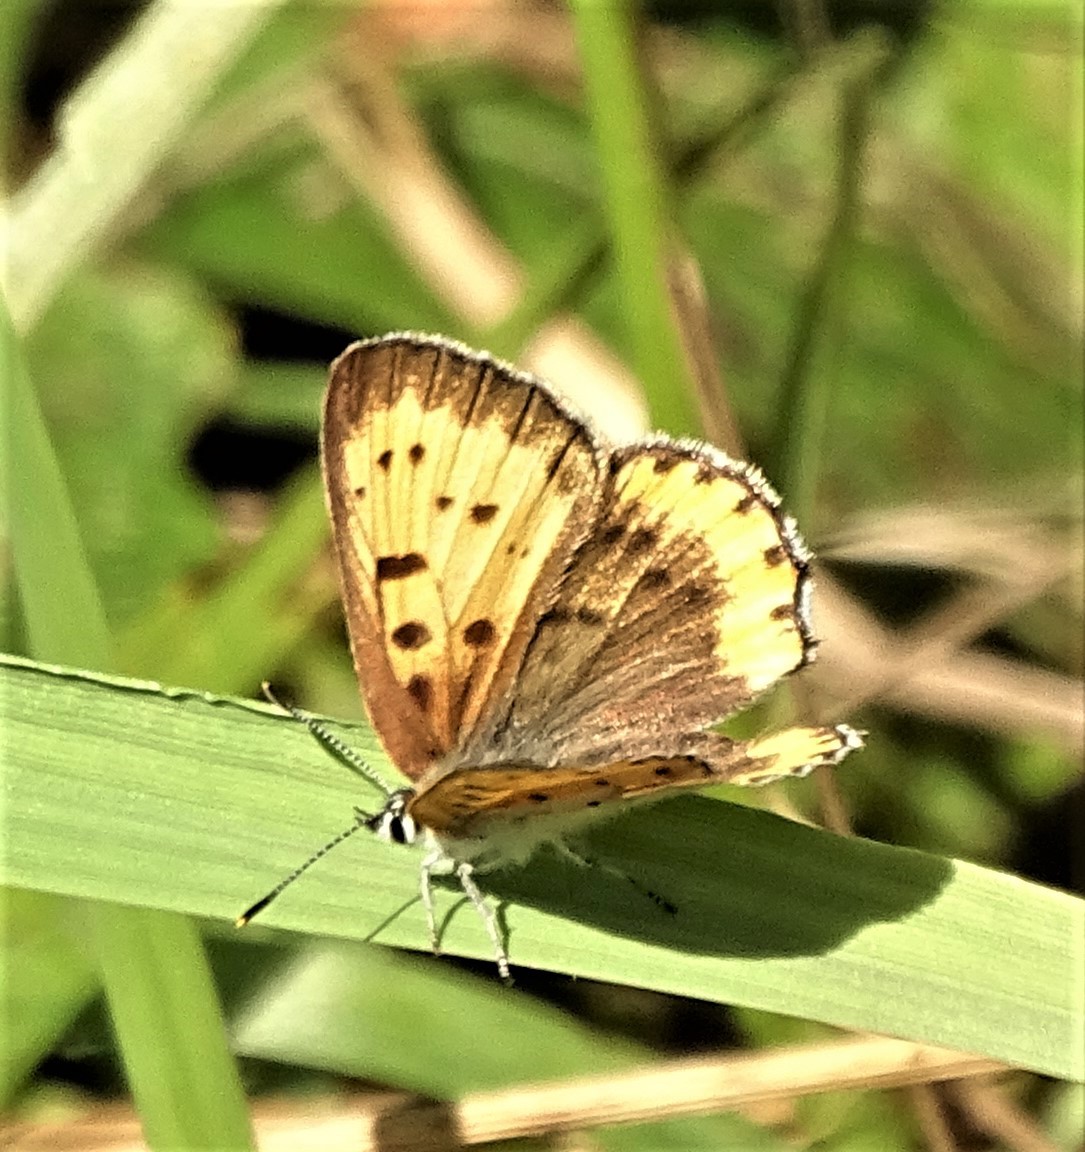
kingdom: Animalia
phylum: Arthropoda
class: Insecta
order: Lepidoptera
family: Lycaenidae
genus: Tharsalea
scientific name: Tharsalea hyllus
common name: Bronze copper
